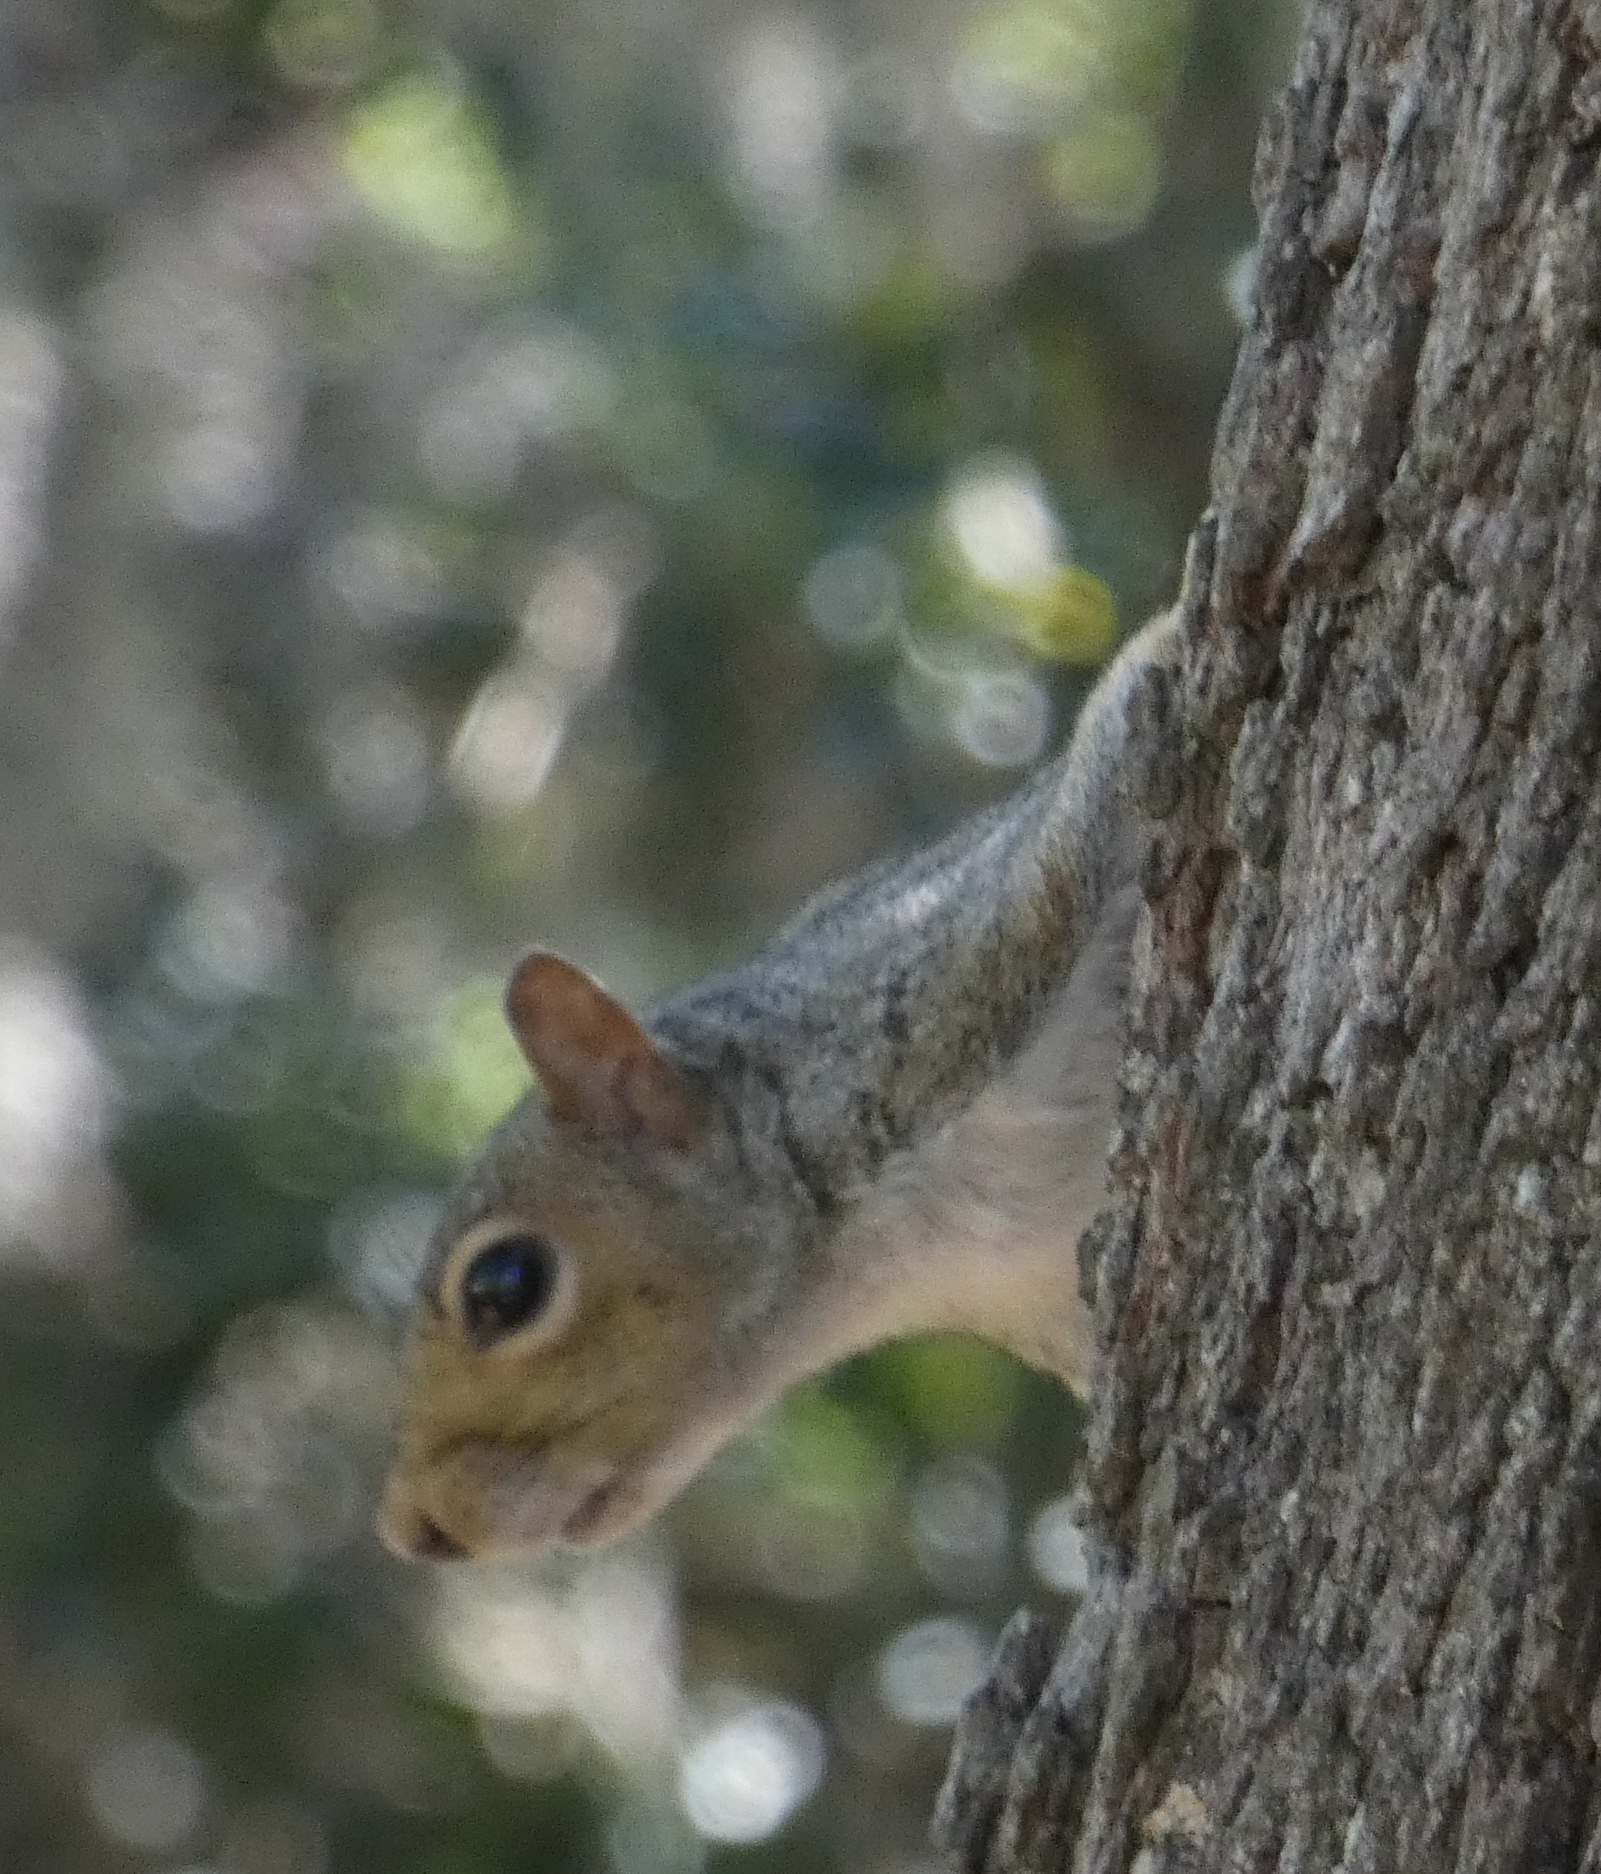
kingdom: Animalia
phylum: Chordata
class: Mammalia
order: Rodentia
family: Sciuridae
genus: Sciurus
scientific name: Sciurus carolinensis
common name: Eastern gray squirrel
